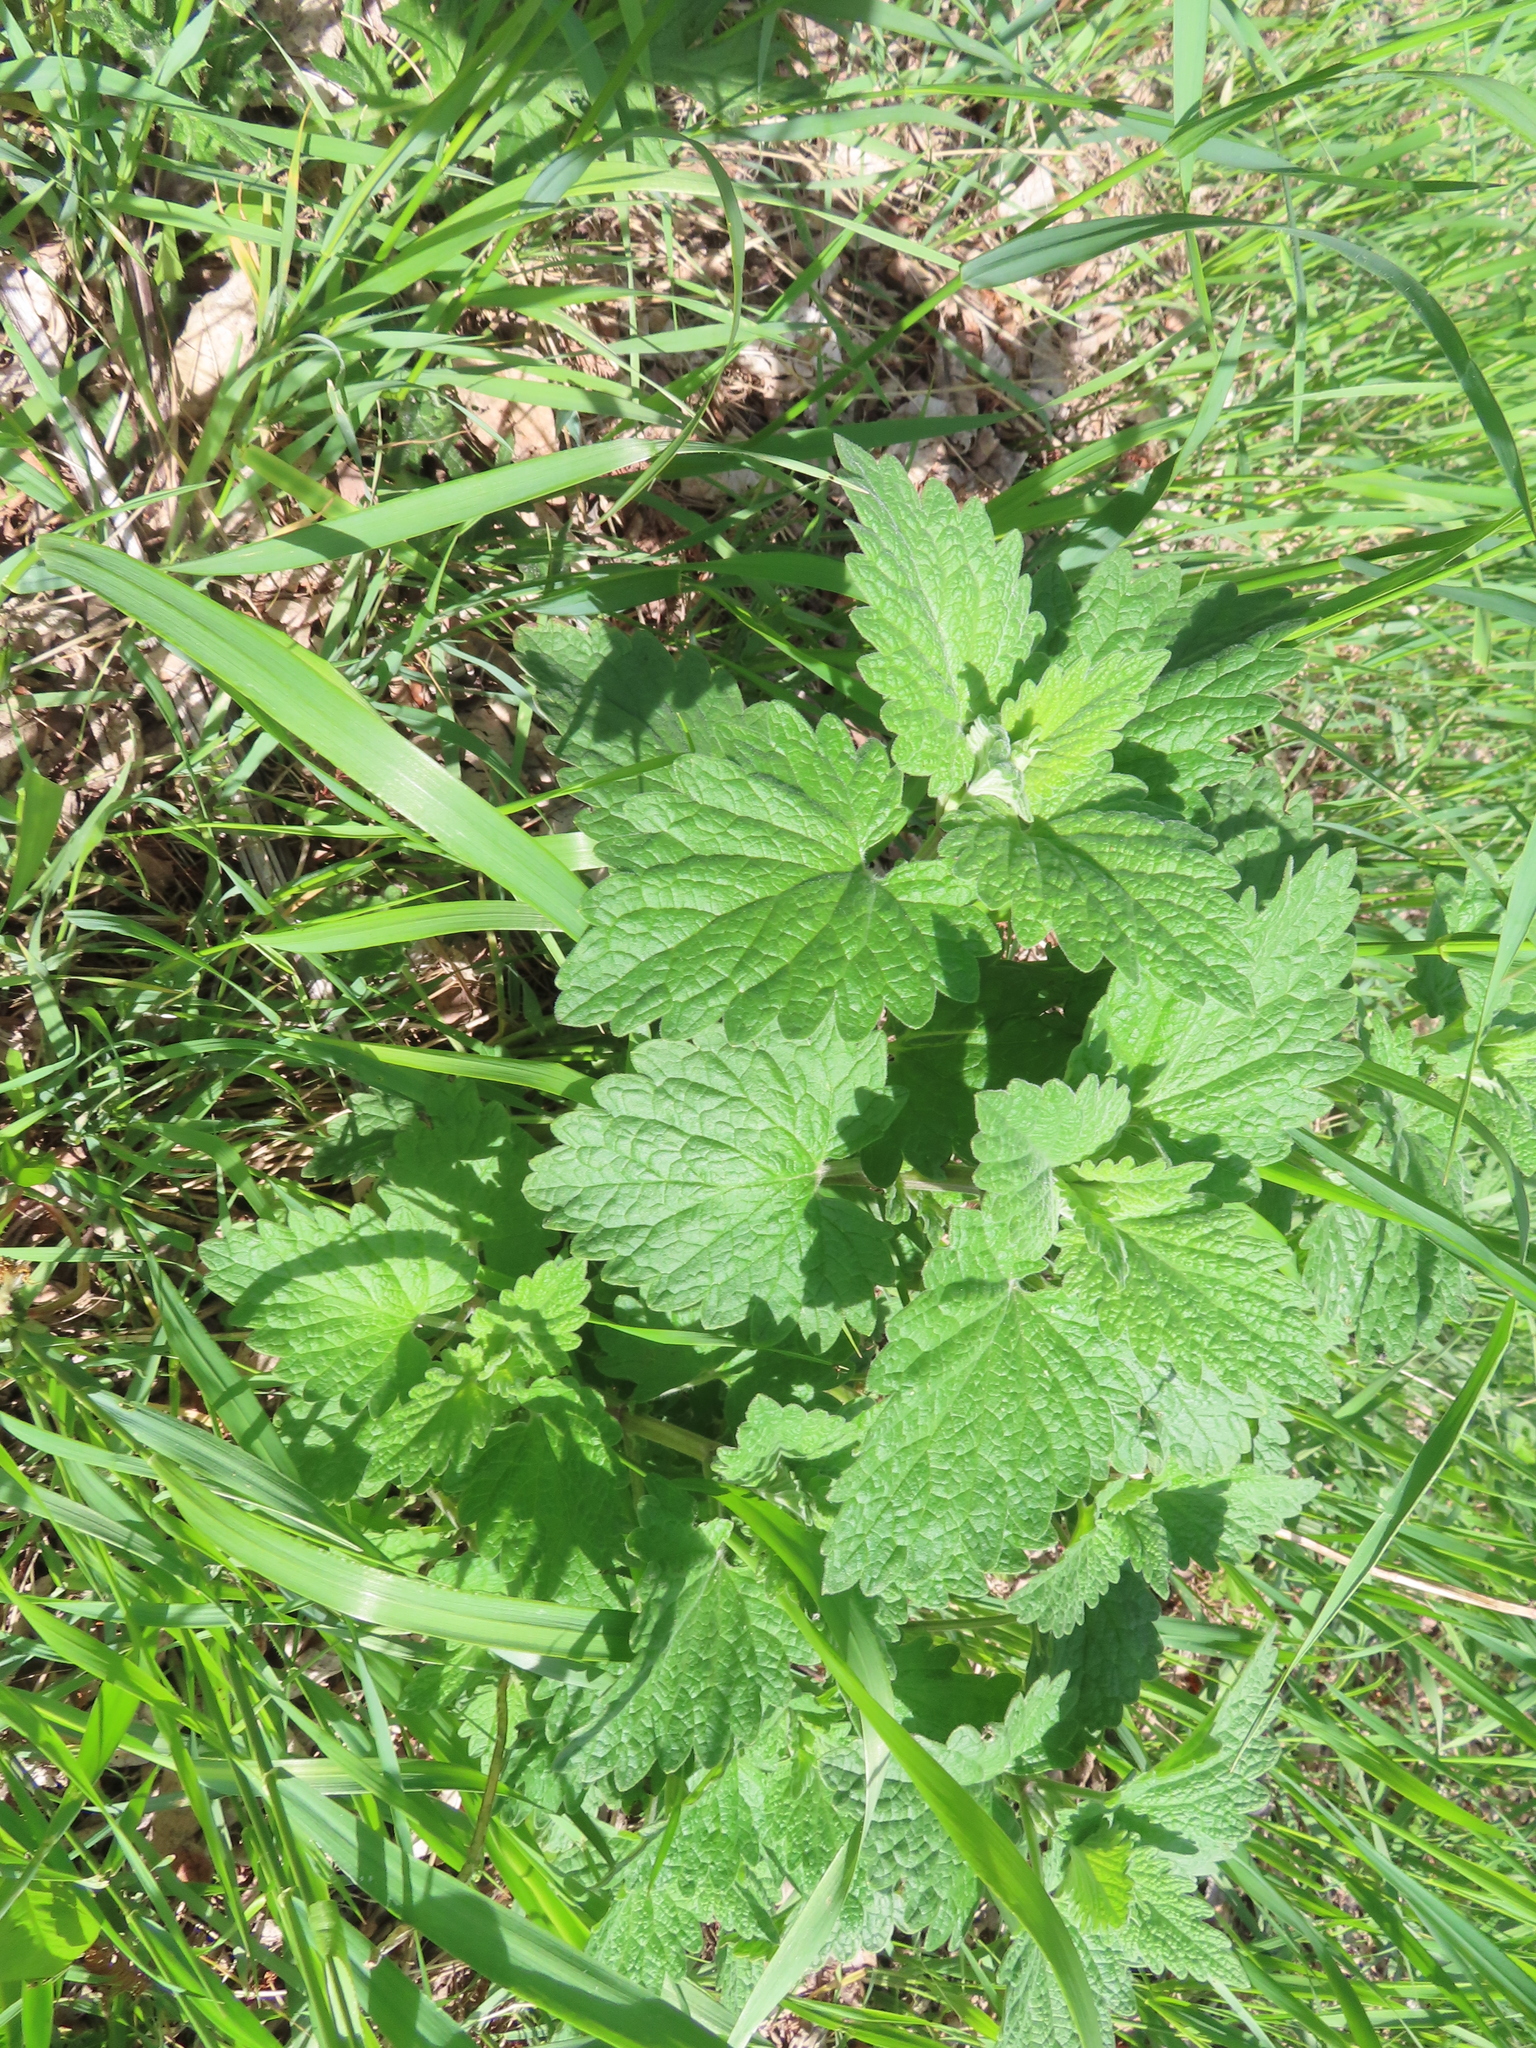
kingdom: Plantae
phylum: Tracheophyta
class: Magnoliopsida
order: Lamiales
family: Lamiaceae
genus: Nepeta
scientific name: Nepeta cataria
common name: Catnip
